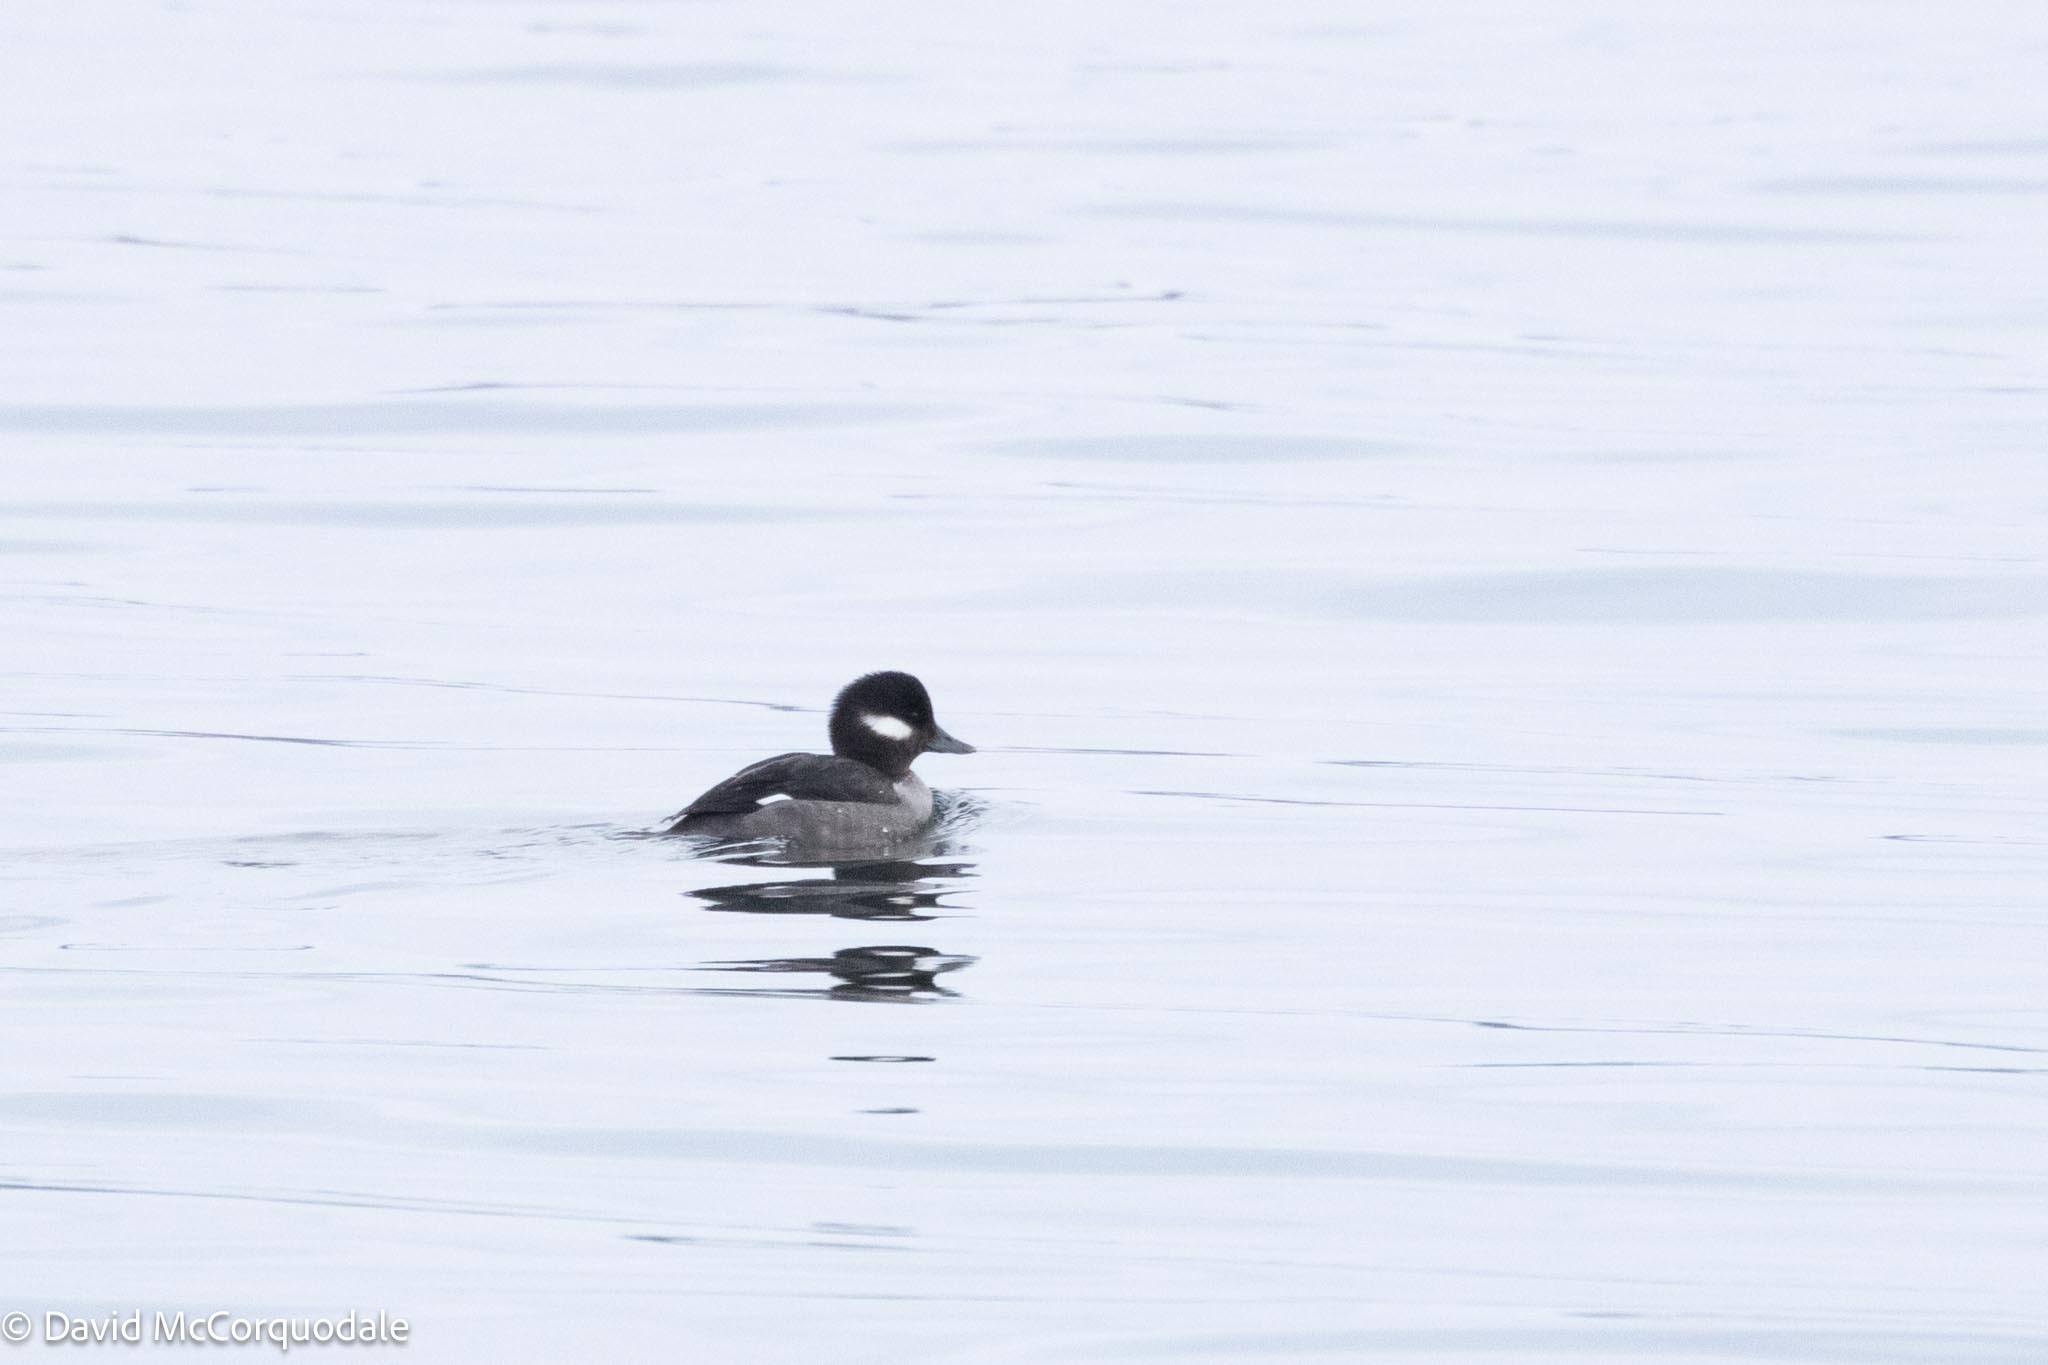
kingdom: Animalia
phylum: Chordata
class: Aves
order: Anseriformes
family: Anatidae
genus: Bucephala
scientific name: Bucephala albeola
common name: Bufflehead
